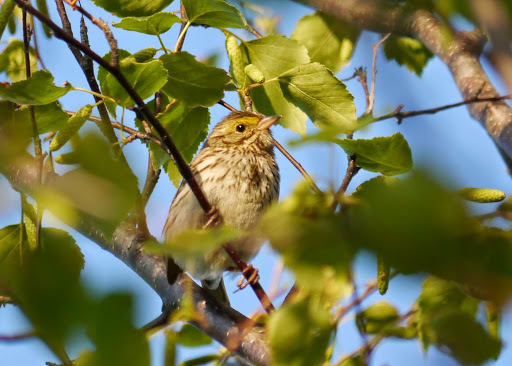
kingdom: Animalia
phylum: Chordata
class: Aves
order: Passeriformes
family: Passerellidae
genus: Passerculus
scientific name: Passerculus sandwichensis
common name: Savannah sparrow
